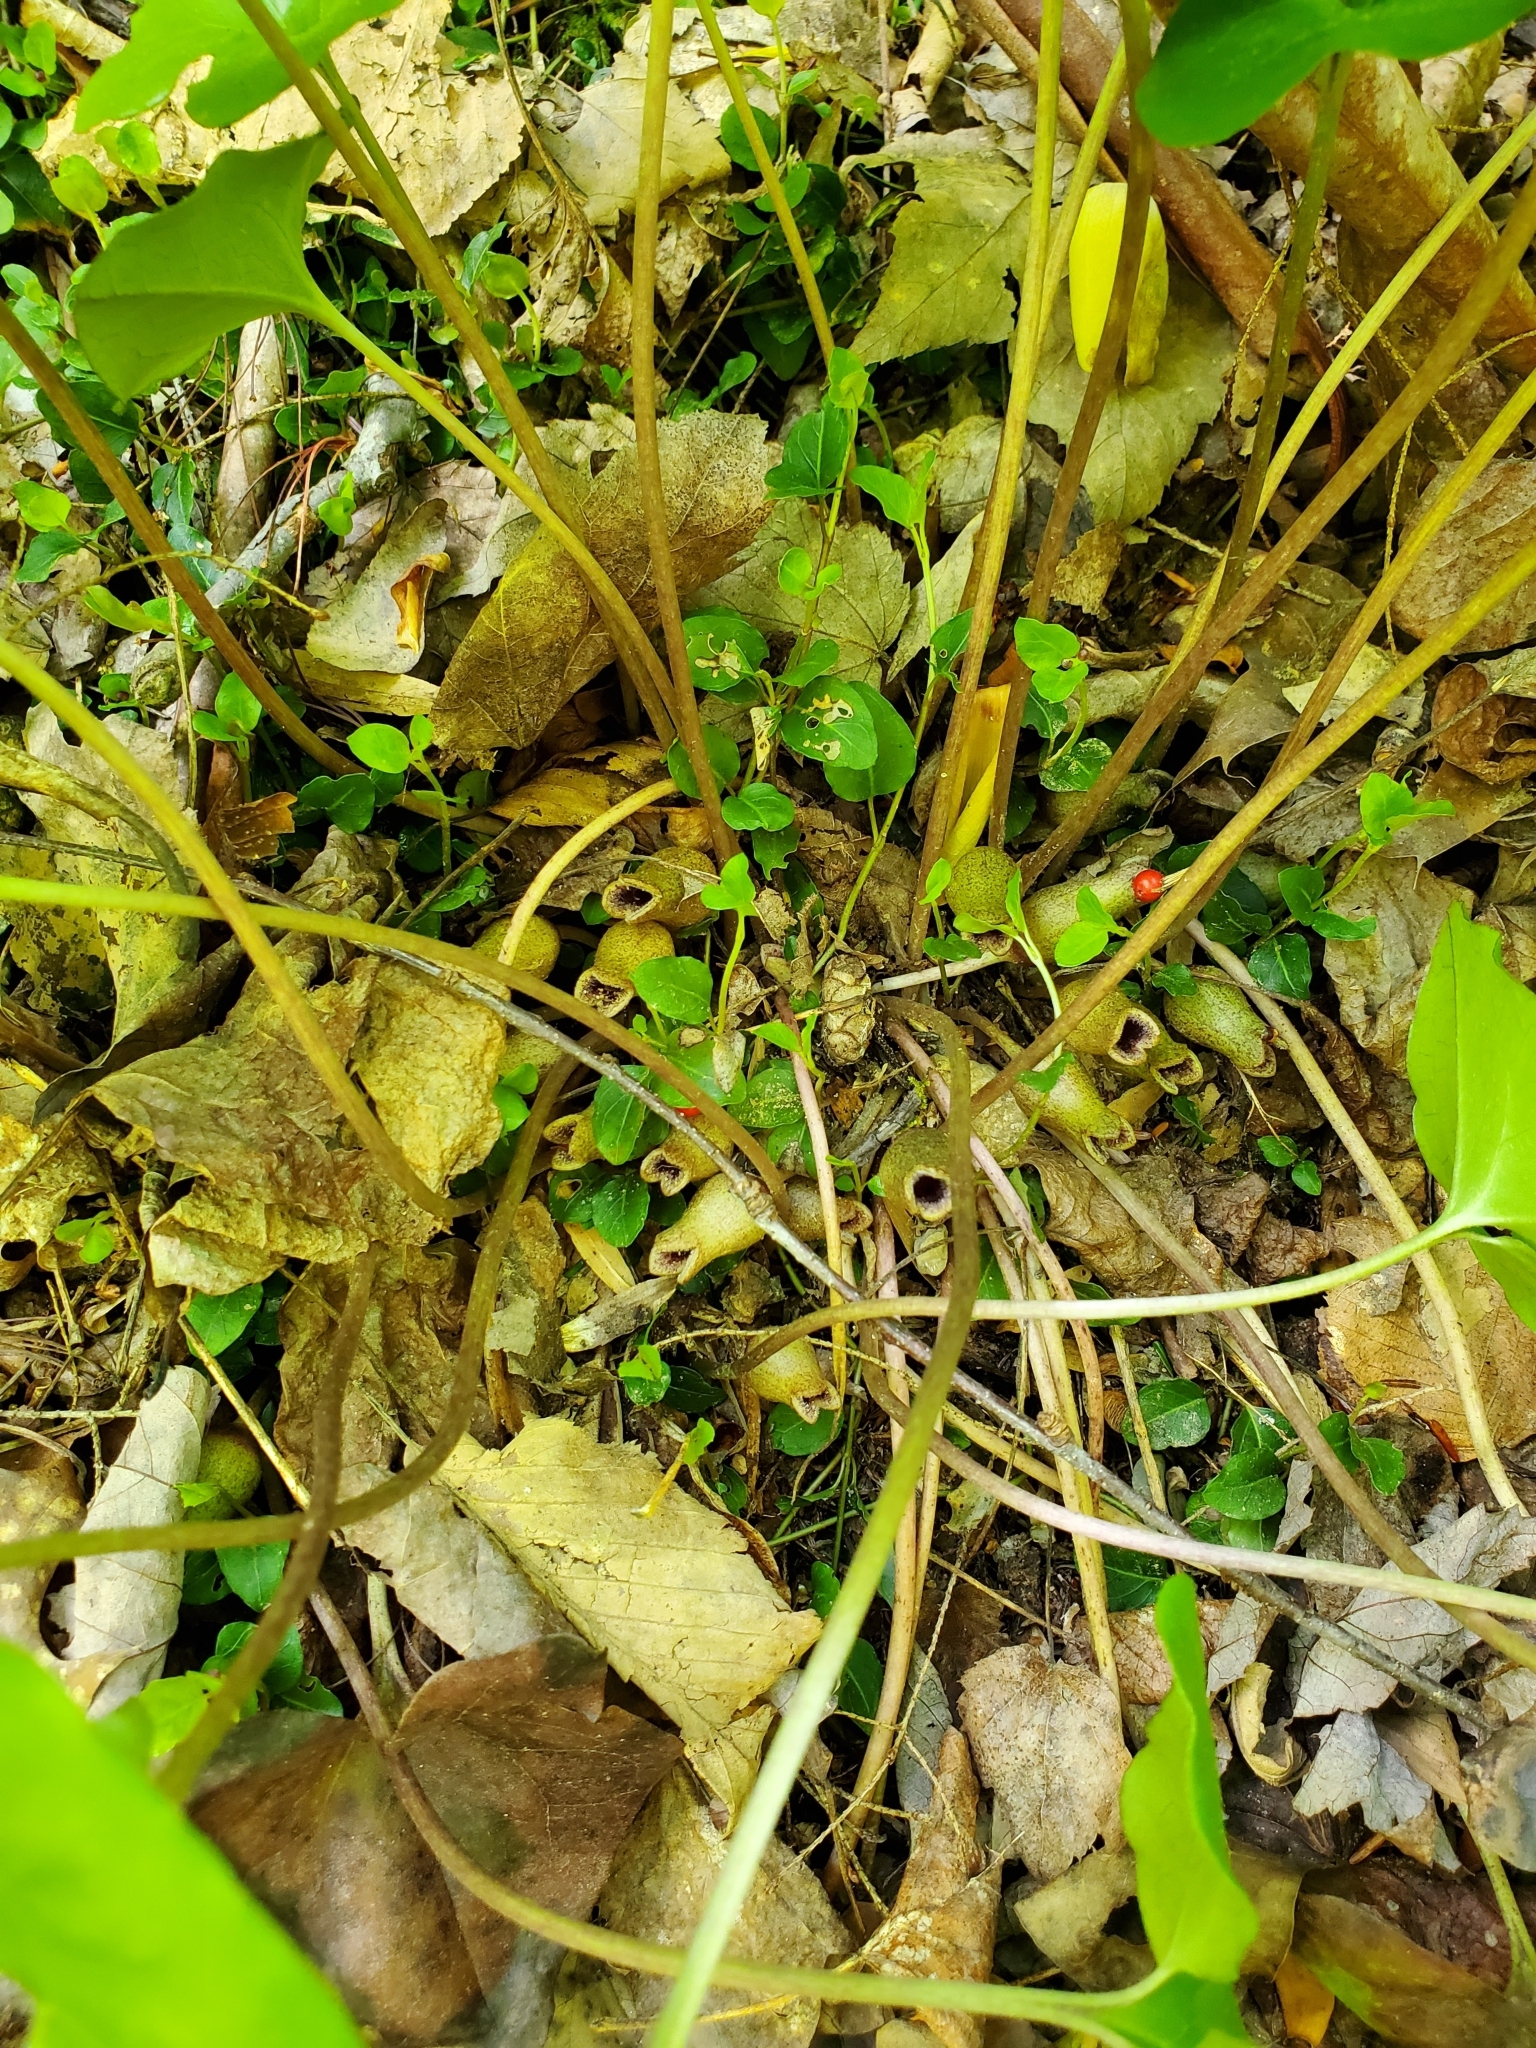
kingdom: Plantae
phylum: Tracheophyta
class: Magnoliopsida
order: Piperales
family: Aristolochiaceae
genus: Hexastylis
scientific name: Hexastylis arifolia
